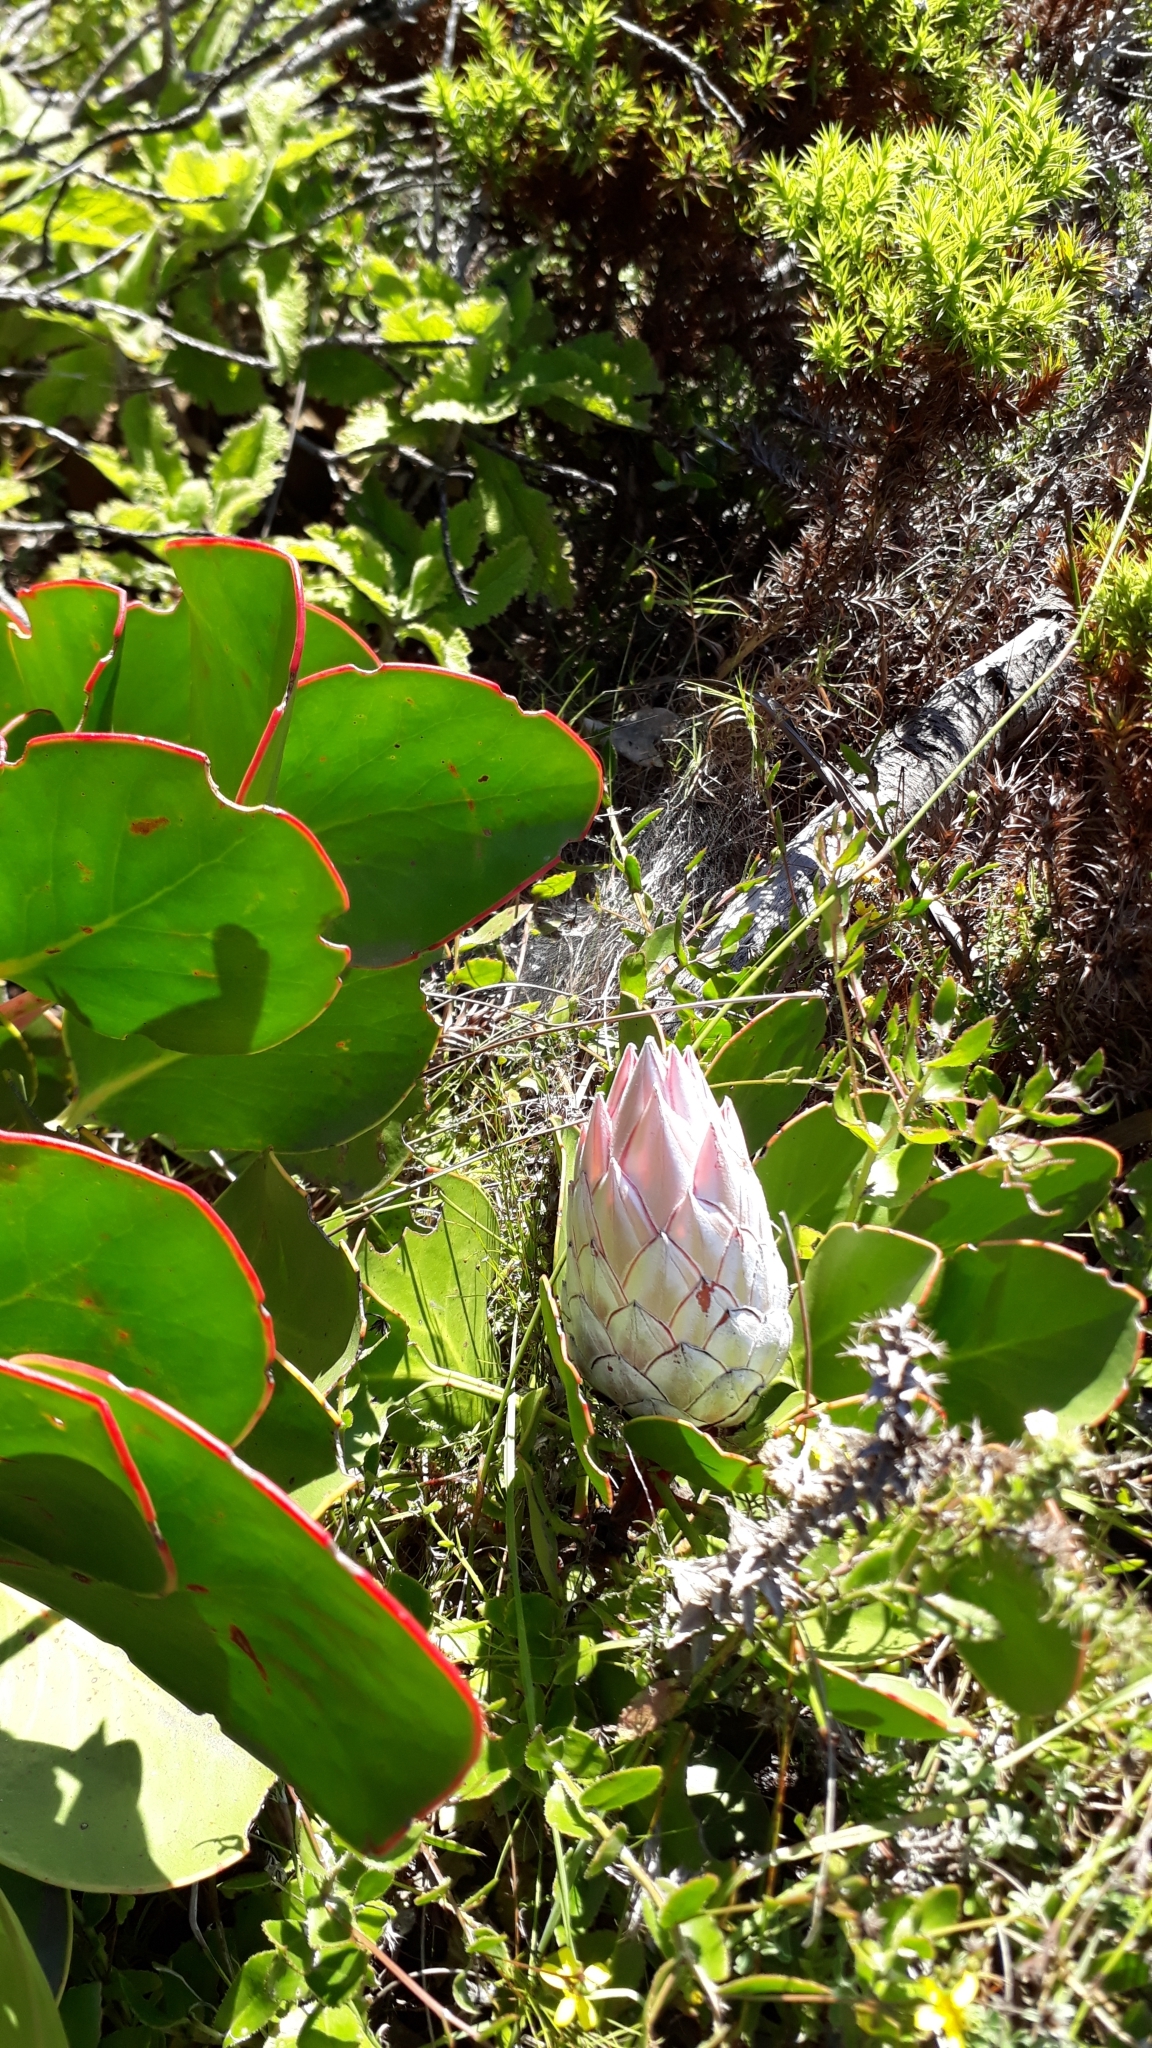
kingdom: Plantae
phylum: Tracheophyta
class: Magnoliopsida
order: Proteales
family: Proteaceae
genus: Protea
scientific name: Protea cynaroides
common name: King protea
